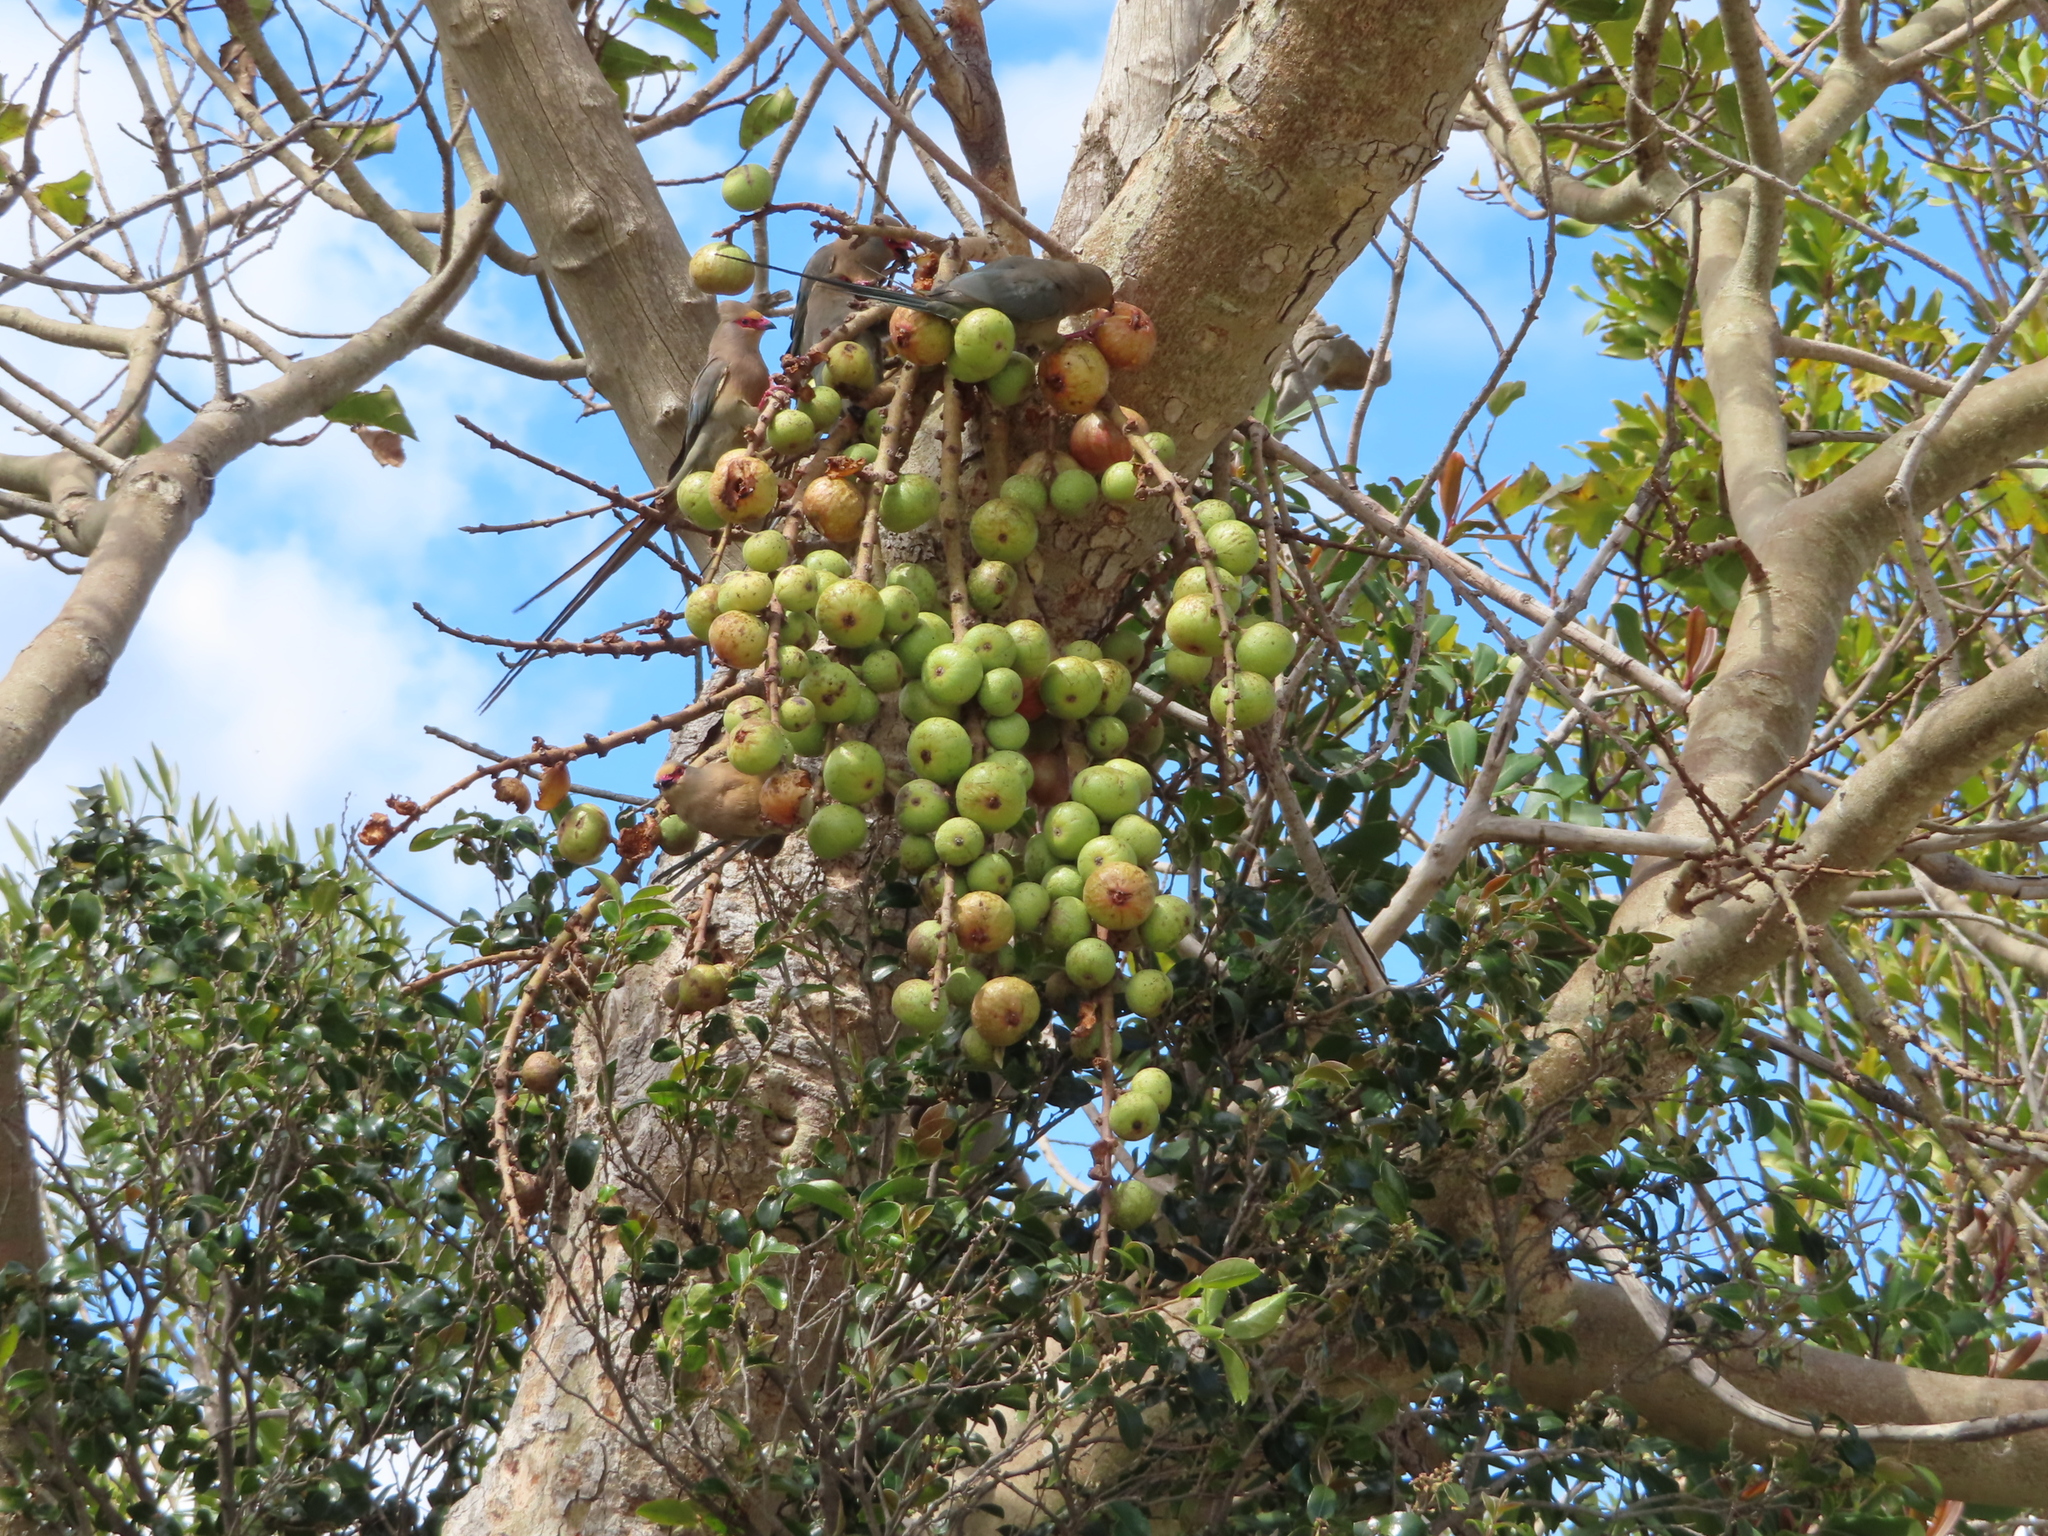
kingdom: Animalia
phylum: Chordata
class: Aves
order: Coliiformes
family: Coliidae
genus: Urocolius
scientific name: Urocolius indicus
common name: Red-faced mousebird
